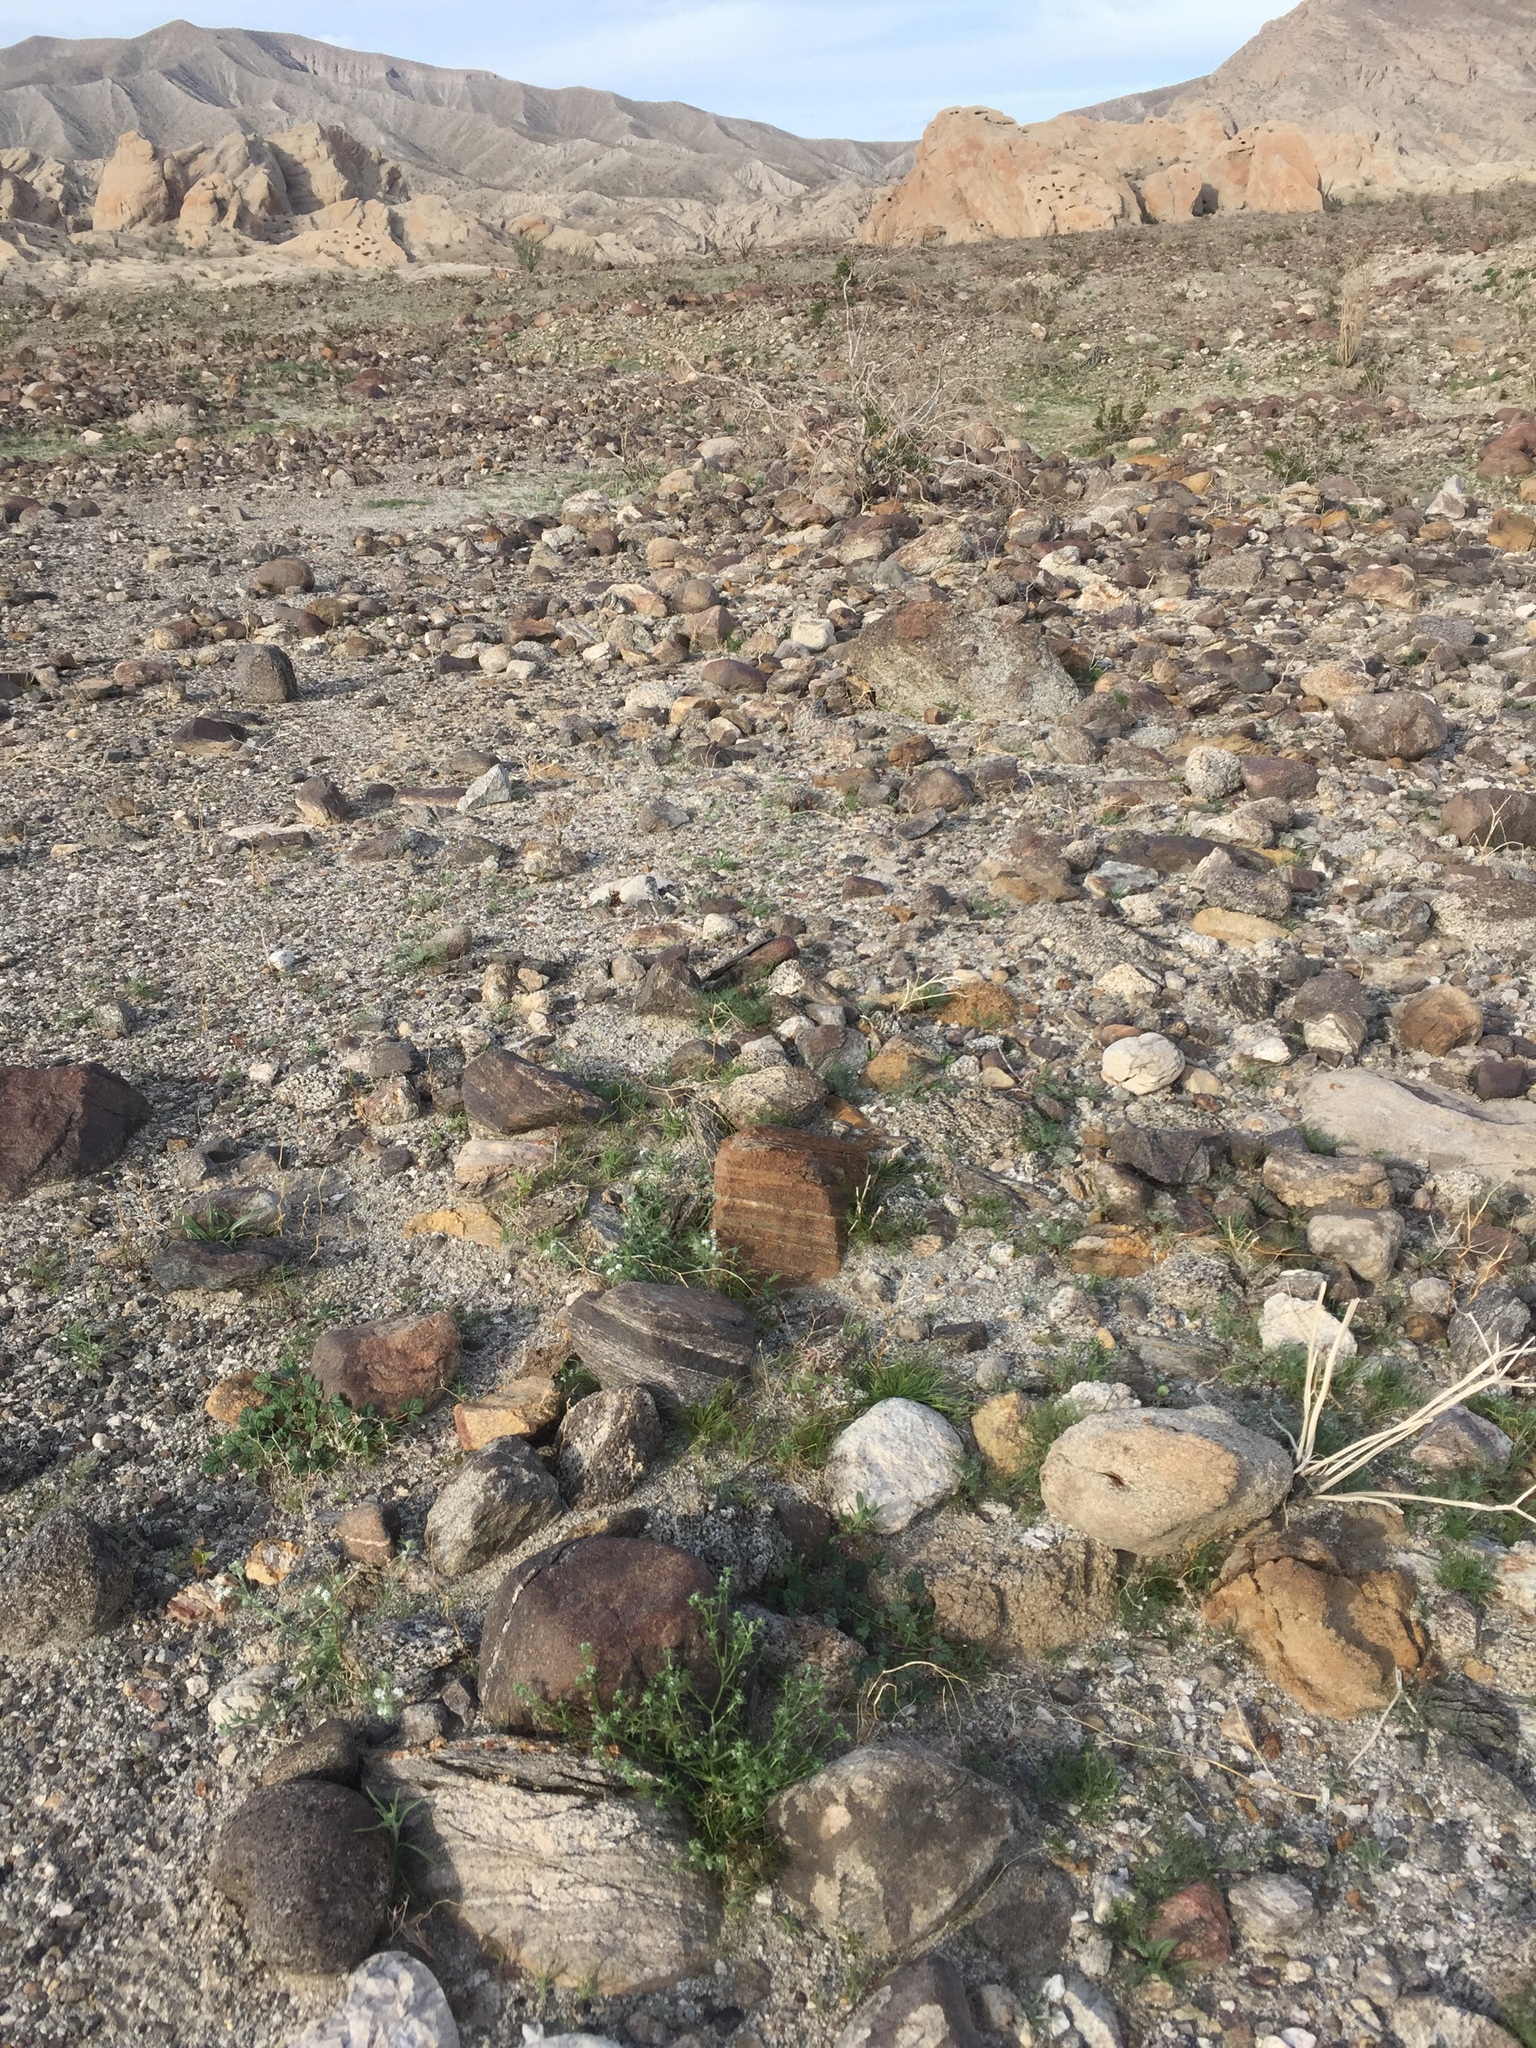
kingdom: Plantae
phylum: Tracheophyta
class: Magnoliopsida
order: Geraniales
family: Geraniaceae
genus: Erodium
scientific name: Erodium texanum
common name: Texas stork's-bill
